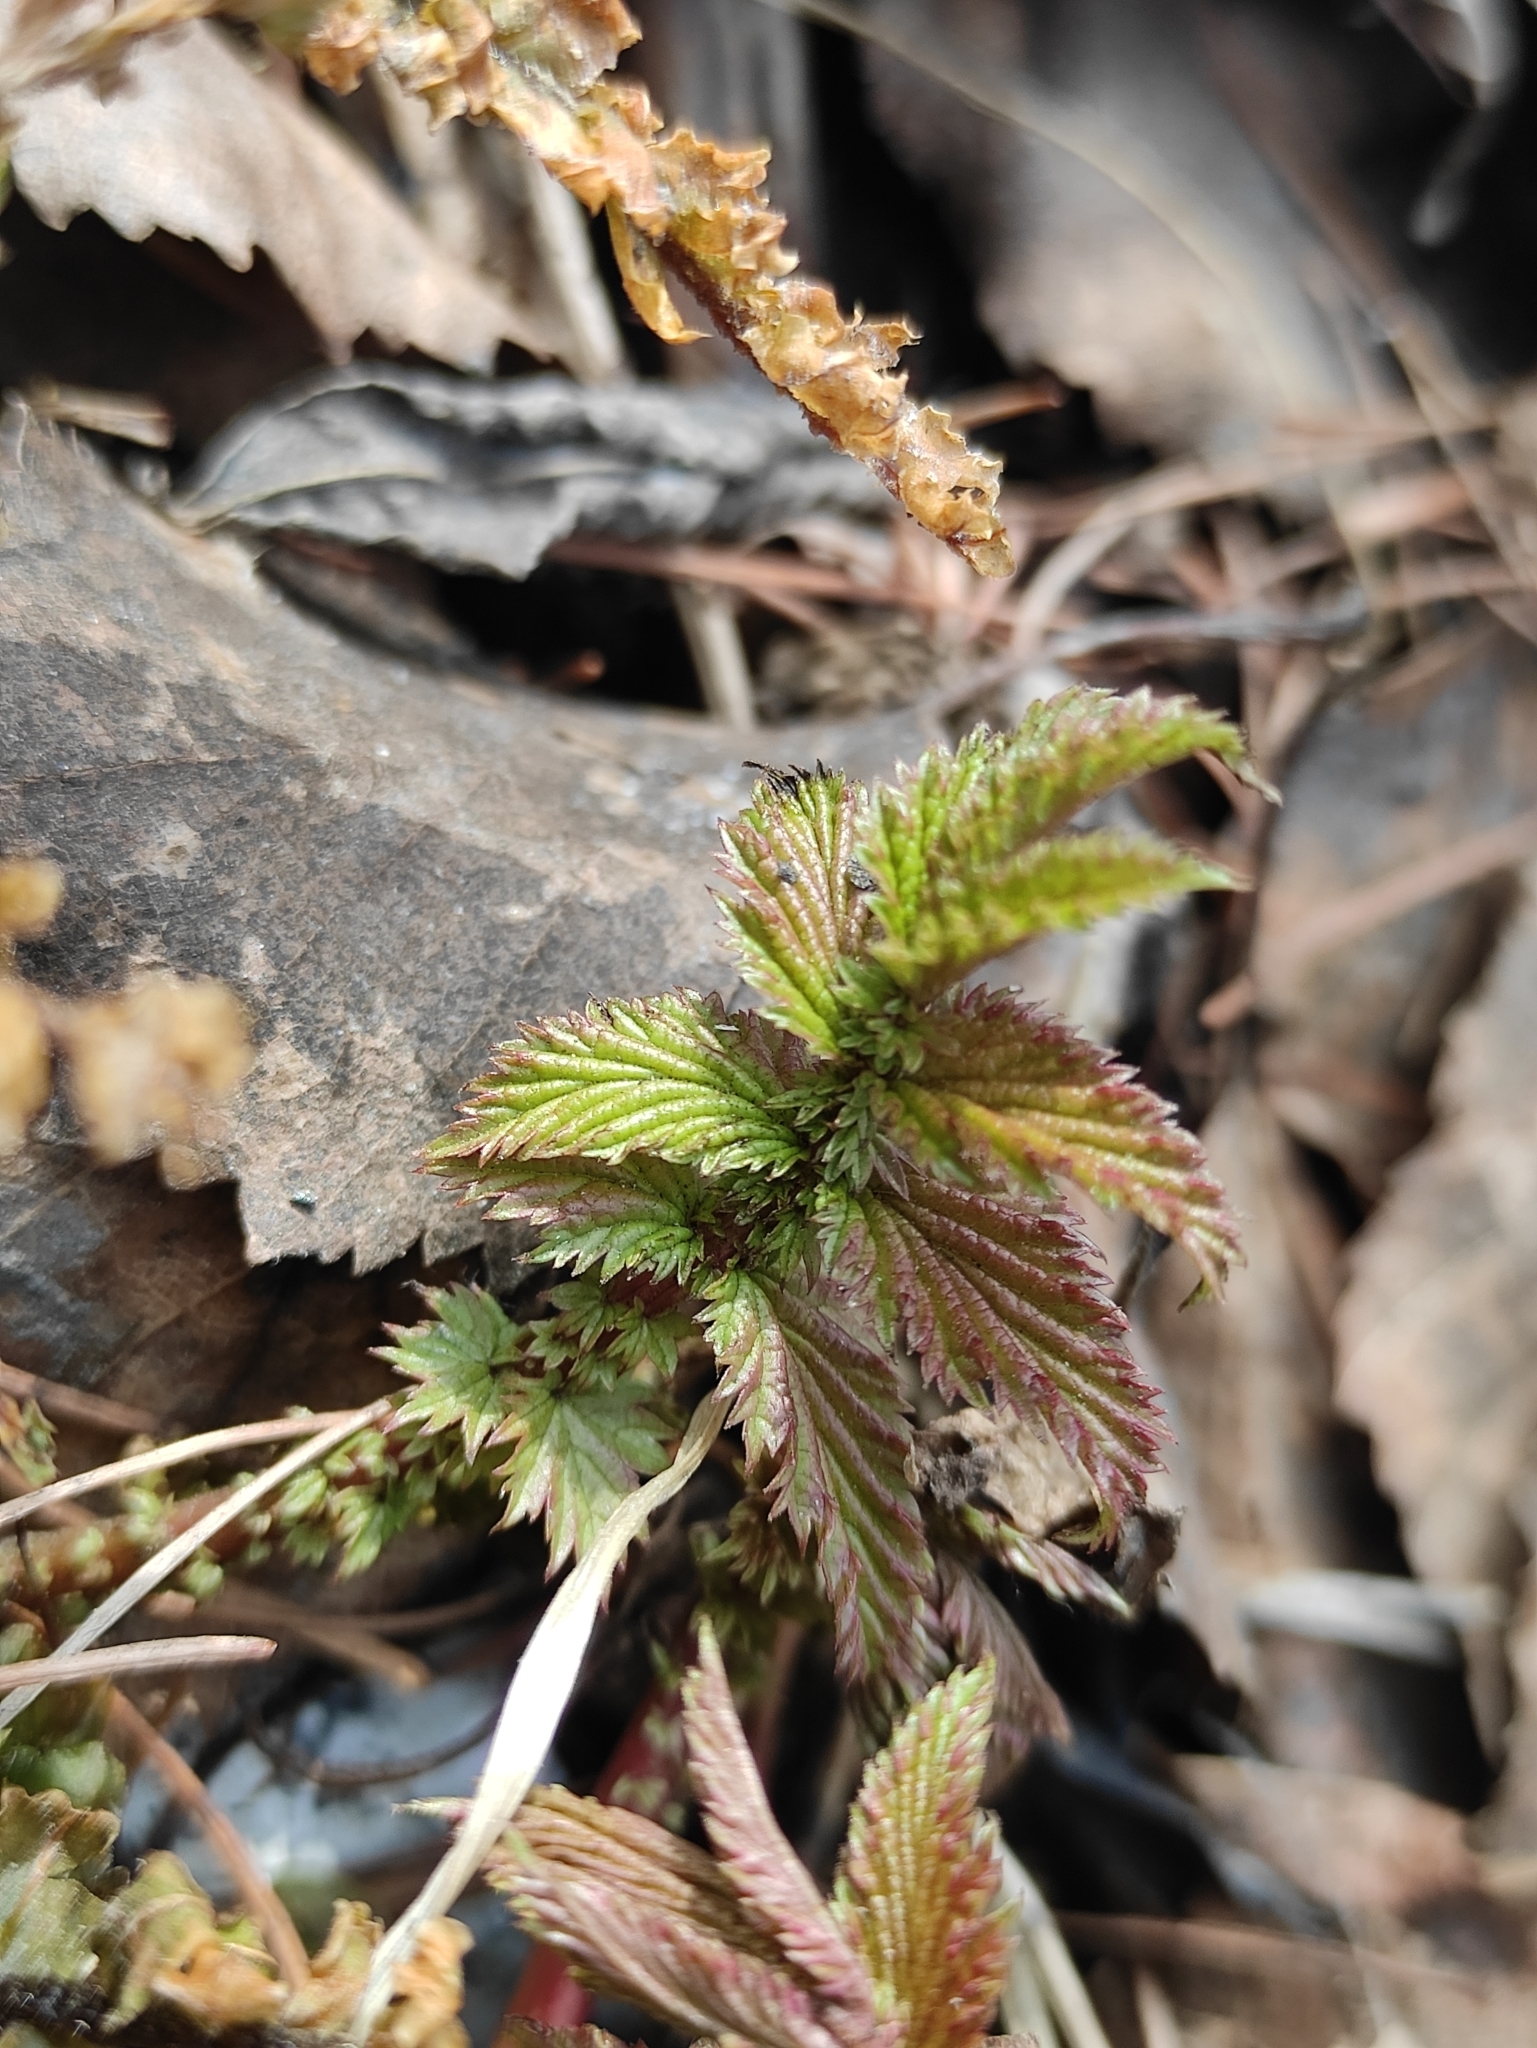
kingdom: Plantae
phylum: Tracheophyta
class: Magnoliopsida
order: Rosales
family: Rosaceae
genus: Filipendula
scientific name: Filipendula ulmaria
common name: Meadowsweet
